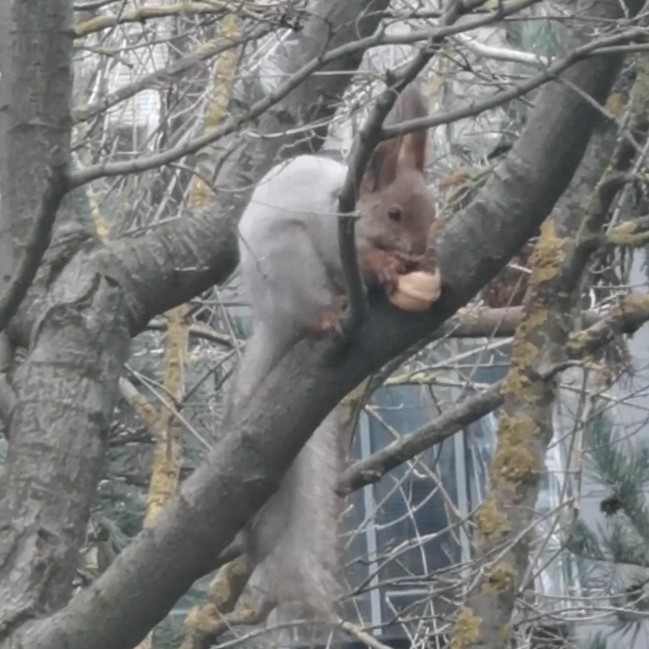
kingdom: Animalia
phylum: Chordata
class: Mammalia
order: Rodentia
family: Sciuridae
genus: Sciurus
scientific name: Sciurus vulgaris
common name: Eurasian red squirrel
